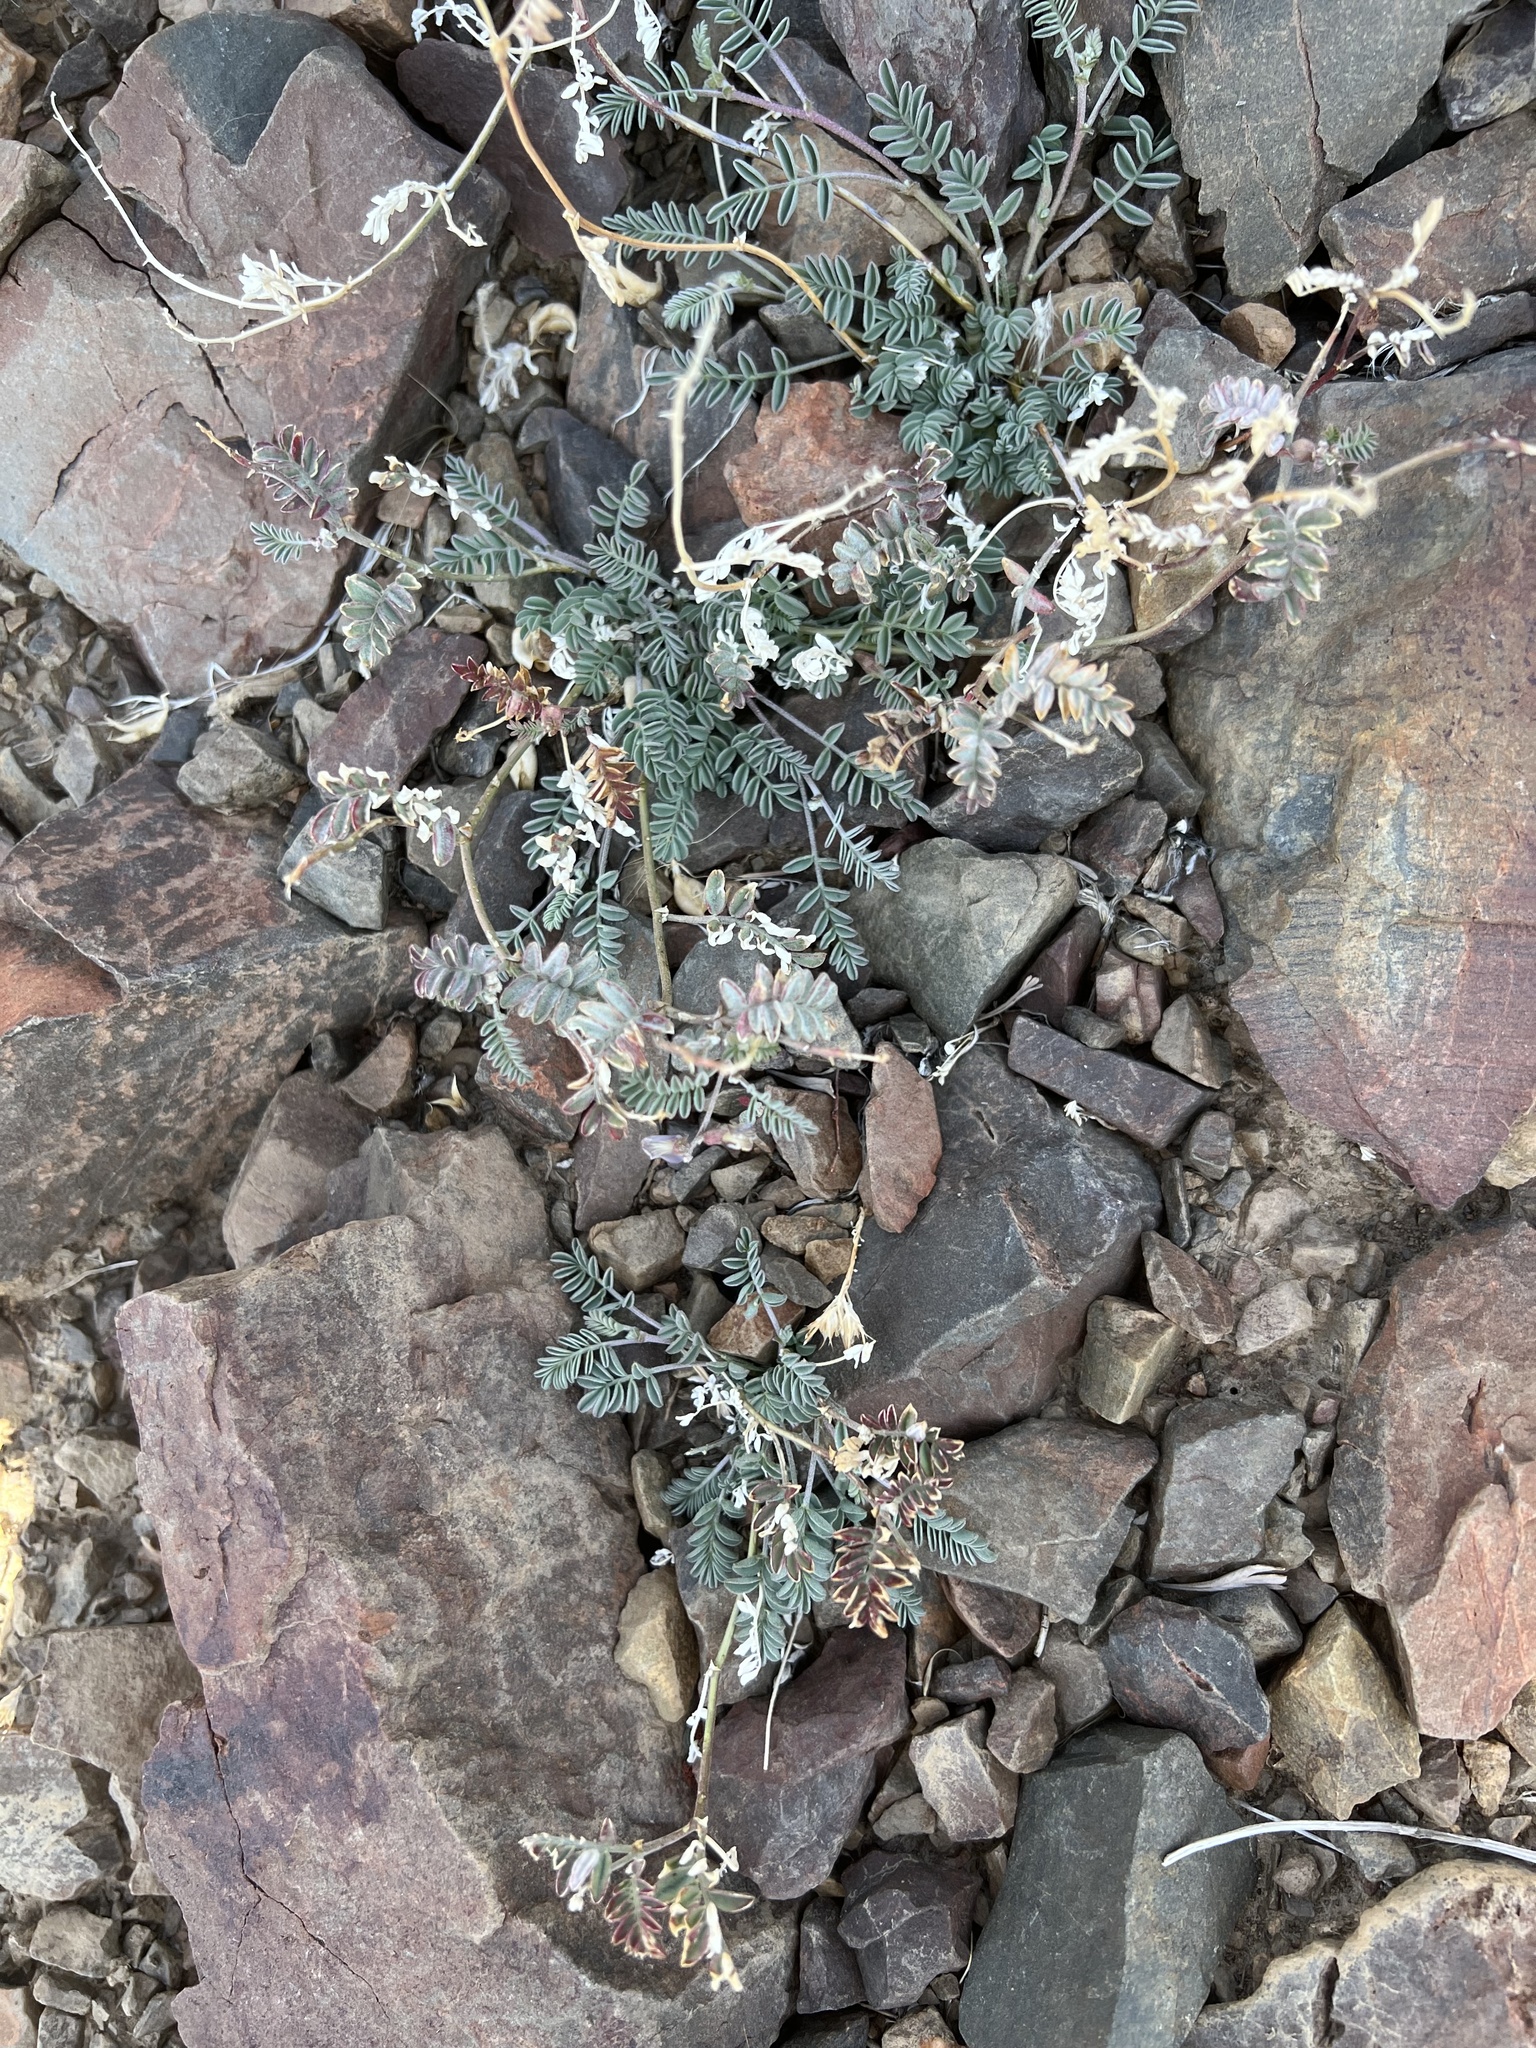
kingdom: Plantae
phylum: Tracheophyta
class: Magnoliopsida
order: Fabales
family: Fabaceae
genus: Astragalus
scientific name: Astragalus inyoensis
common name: Inyo locoweed
